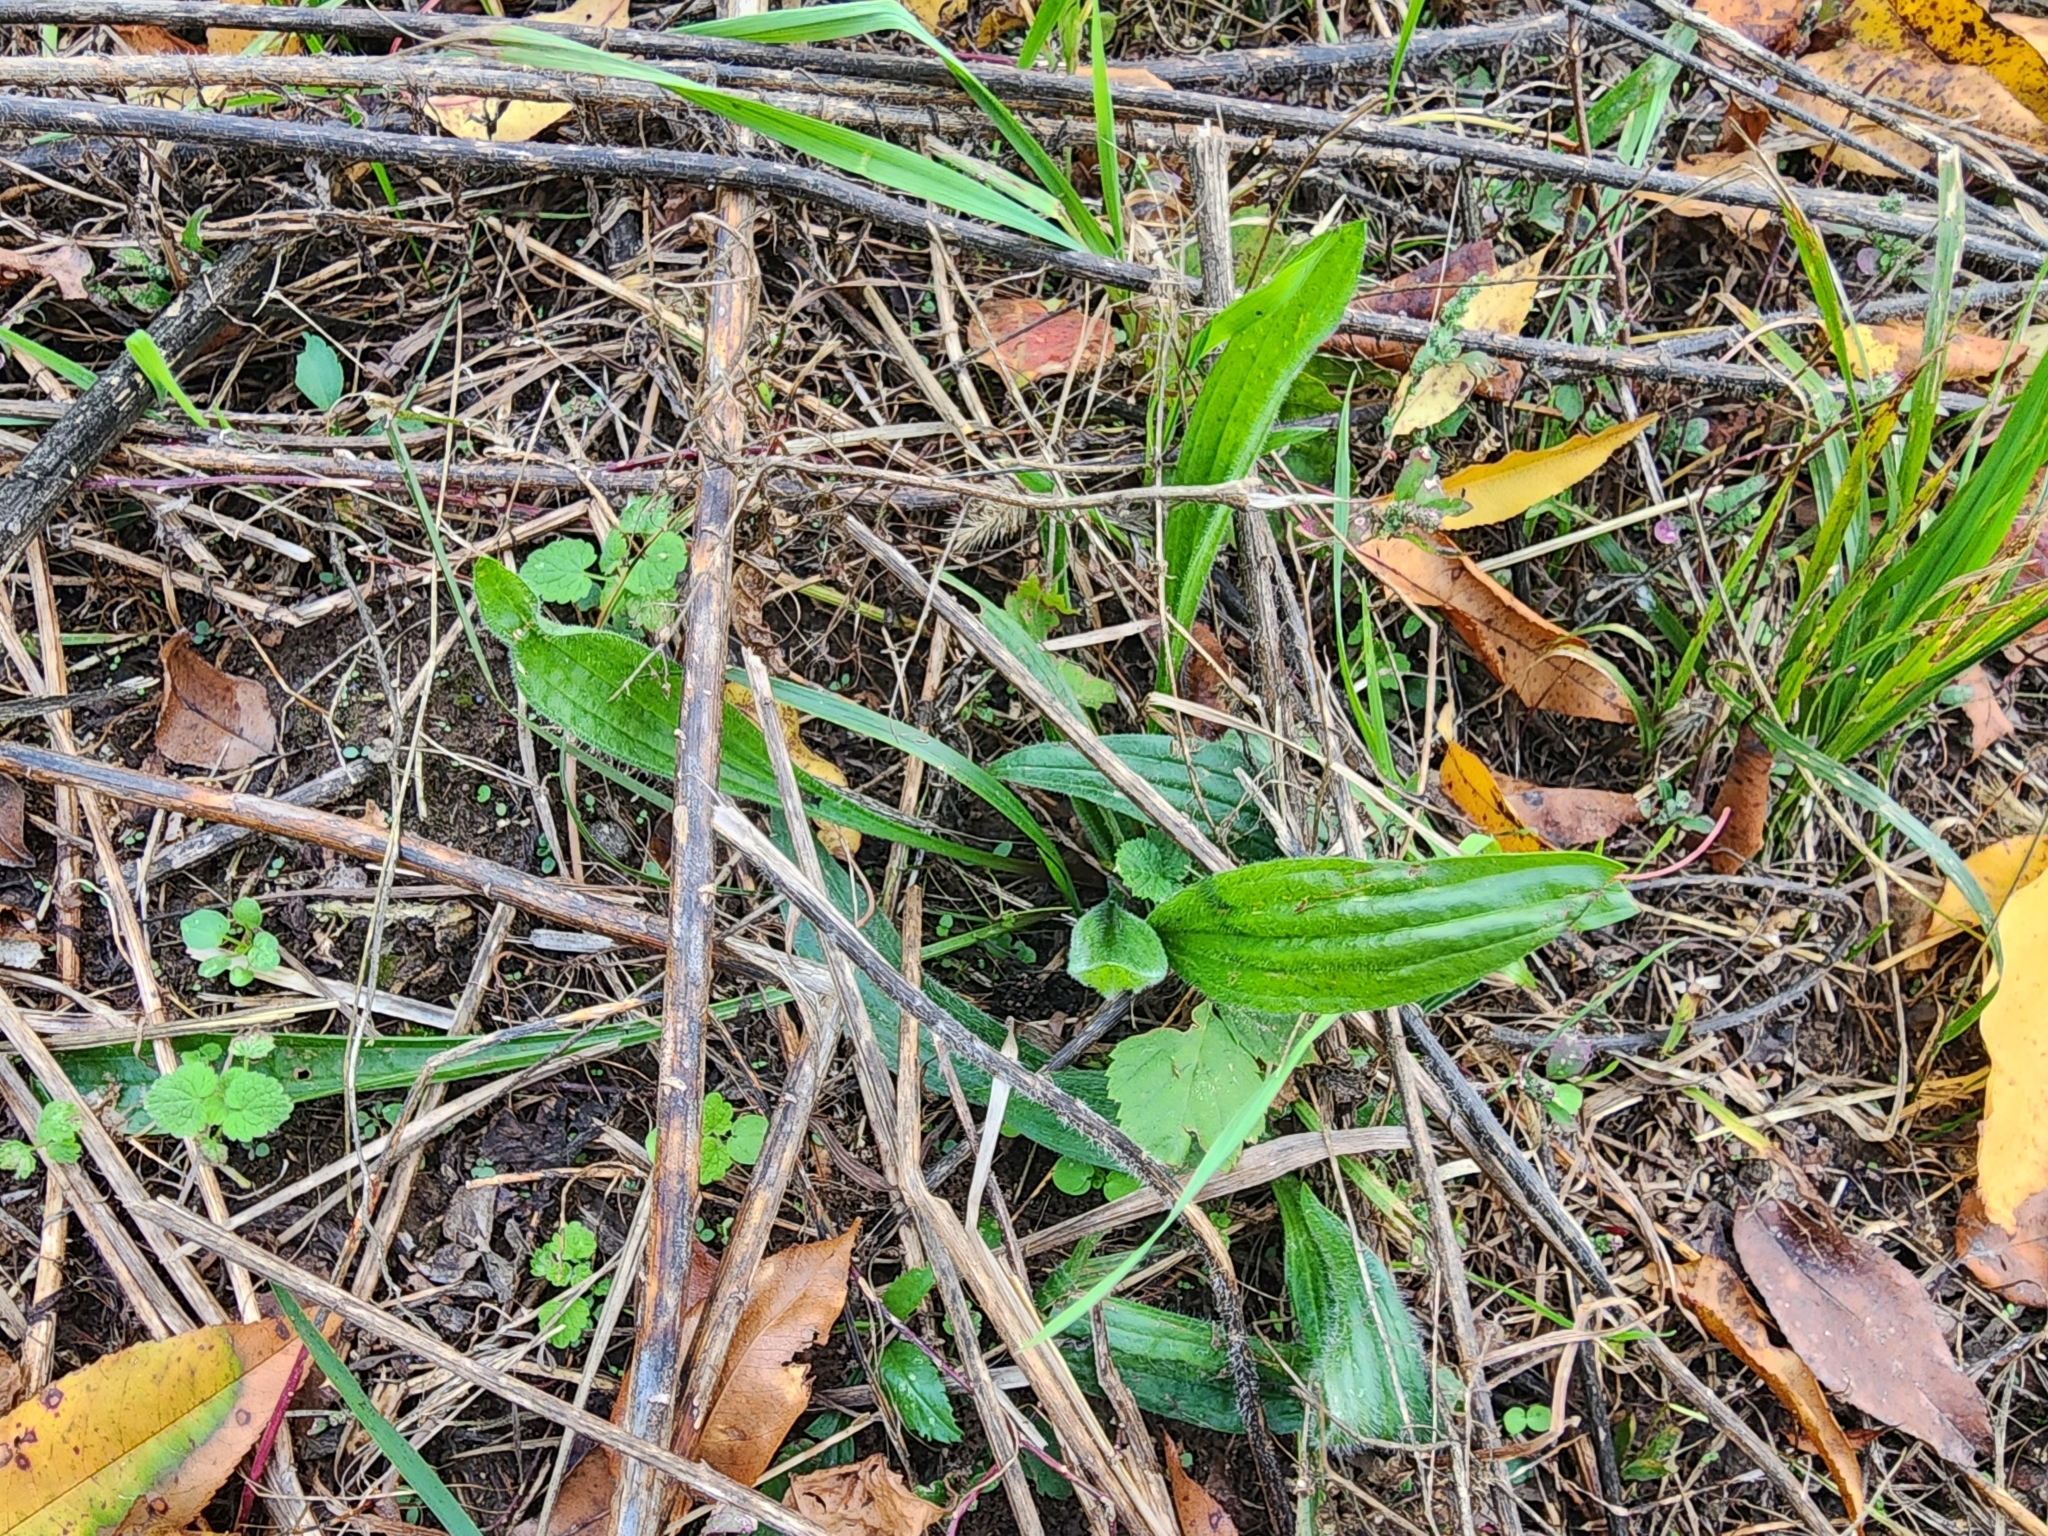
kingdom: Plantae
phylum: Tracheophyta
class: Magnoliopsida
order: Lamiales
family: Plantaginaceae
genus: Plantago
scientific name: Plantago lanceolata
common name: Ribwort plantain
